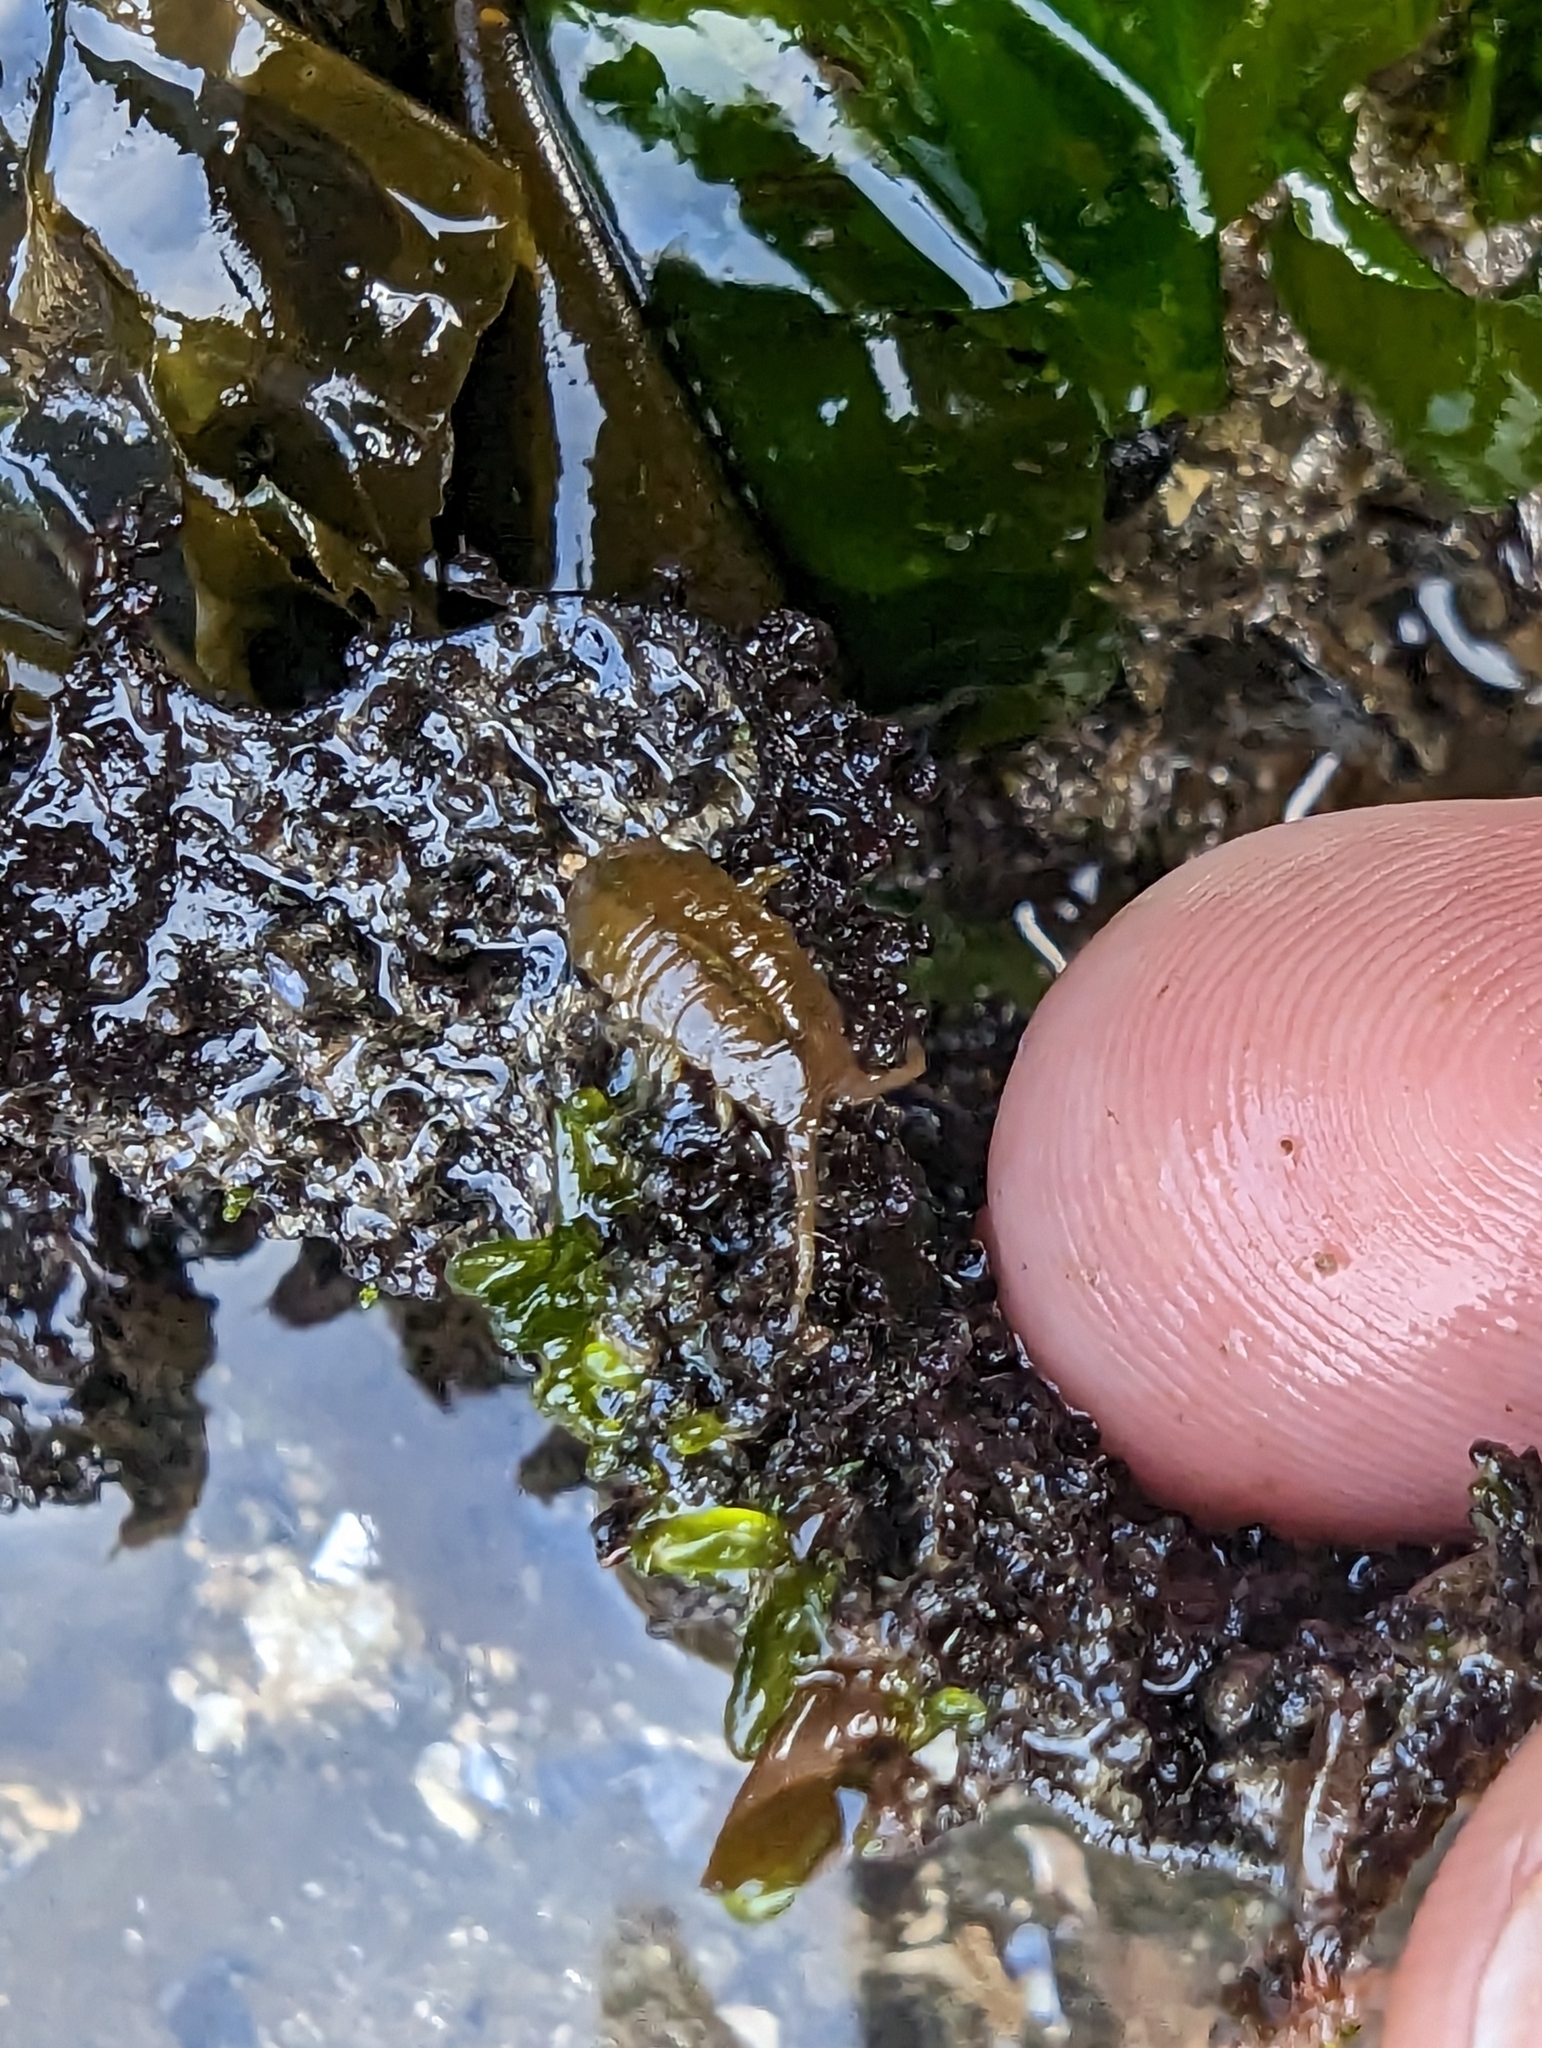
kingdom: Animalia
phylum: Arthropoda
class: Malacostraca
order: Isopoda
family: Idoteidae
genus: Pentidotea
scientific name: Pentidotea wosnesenskii
